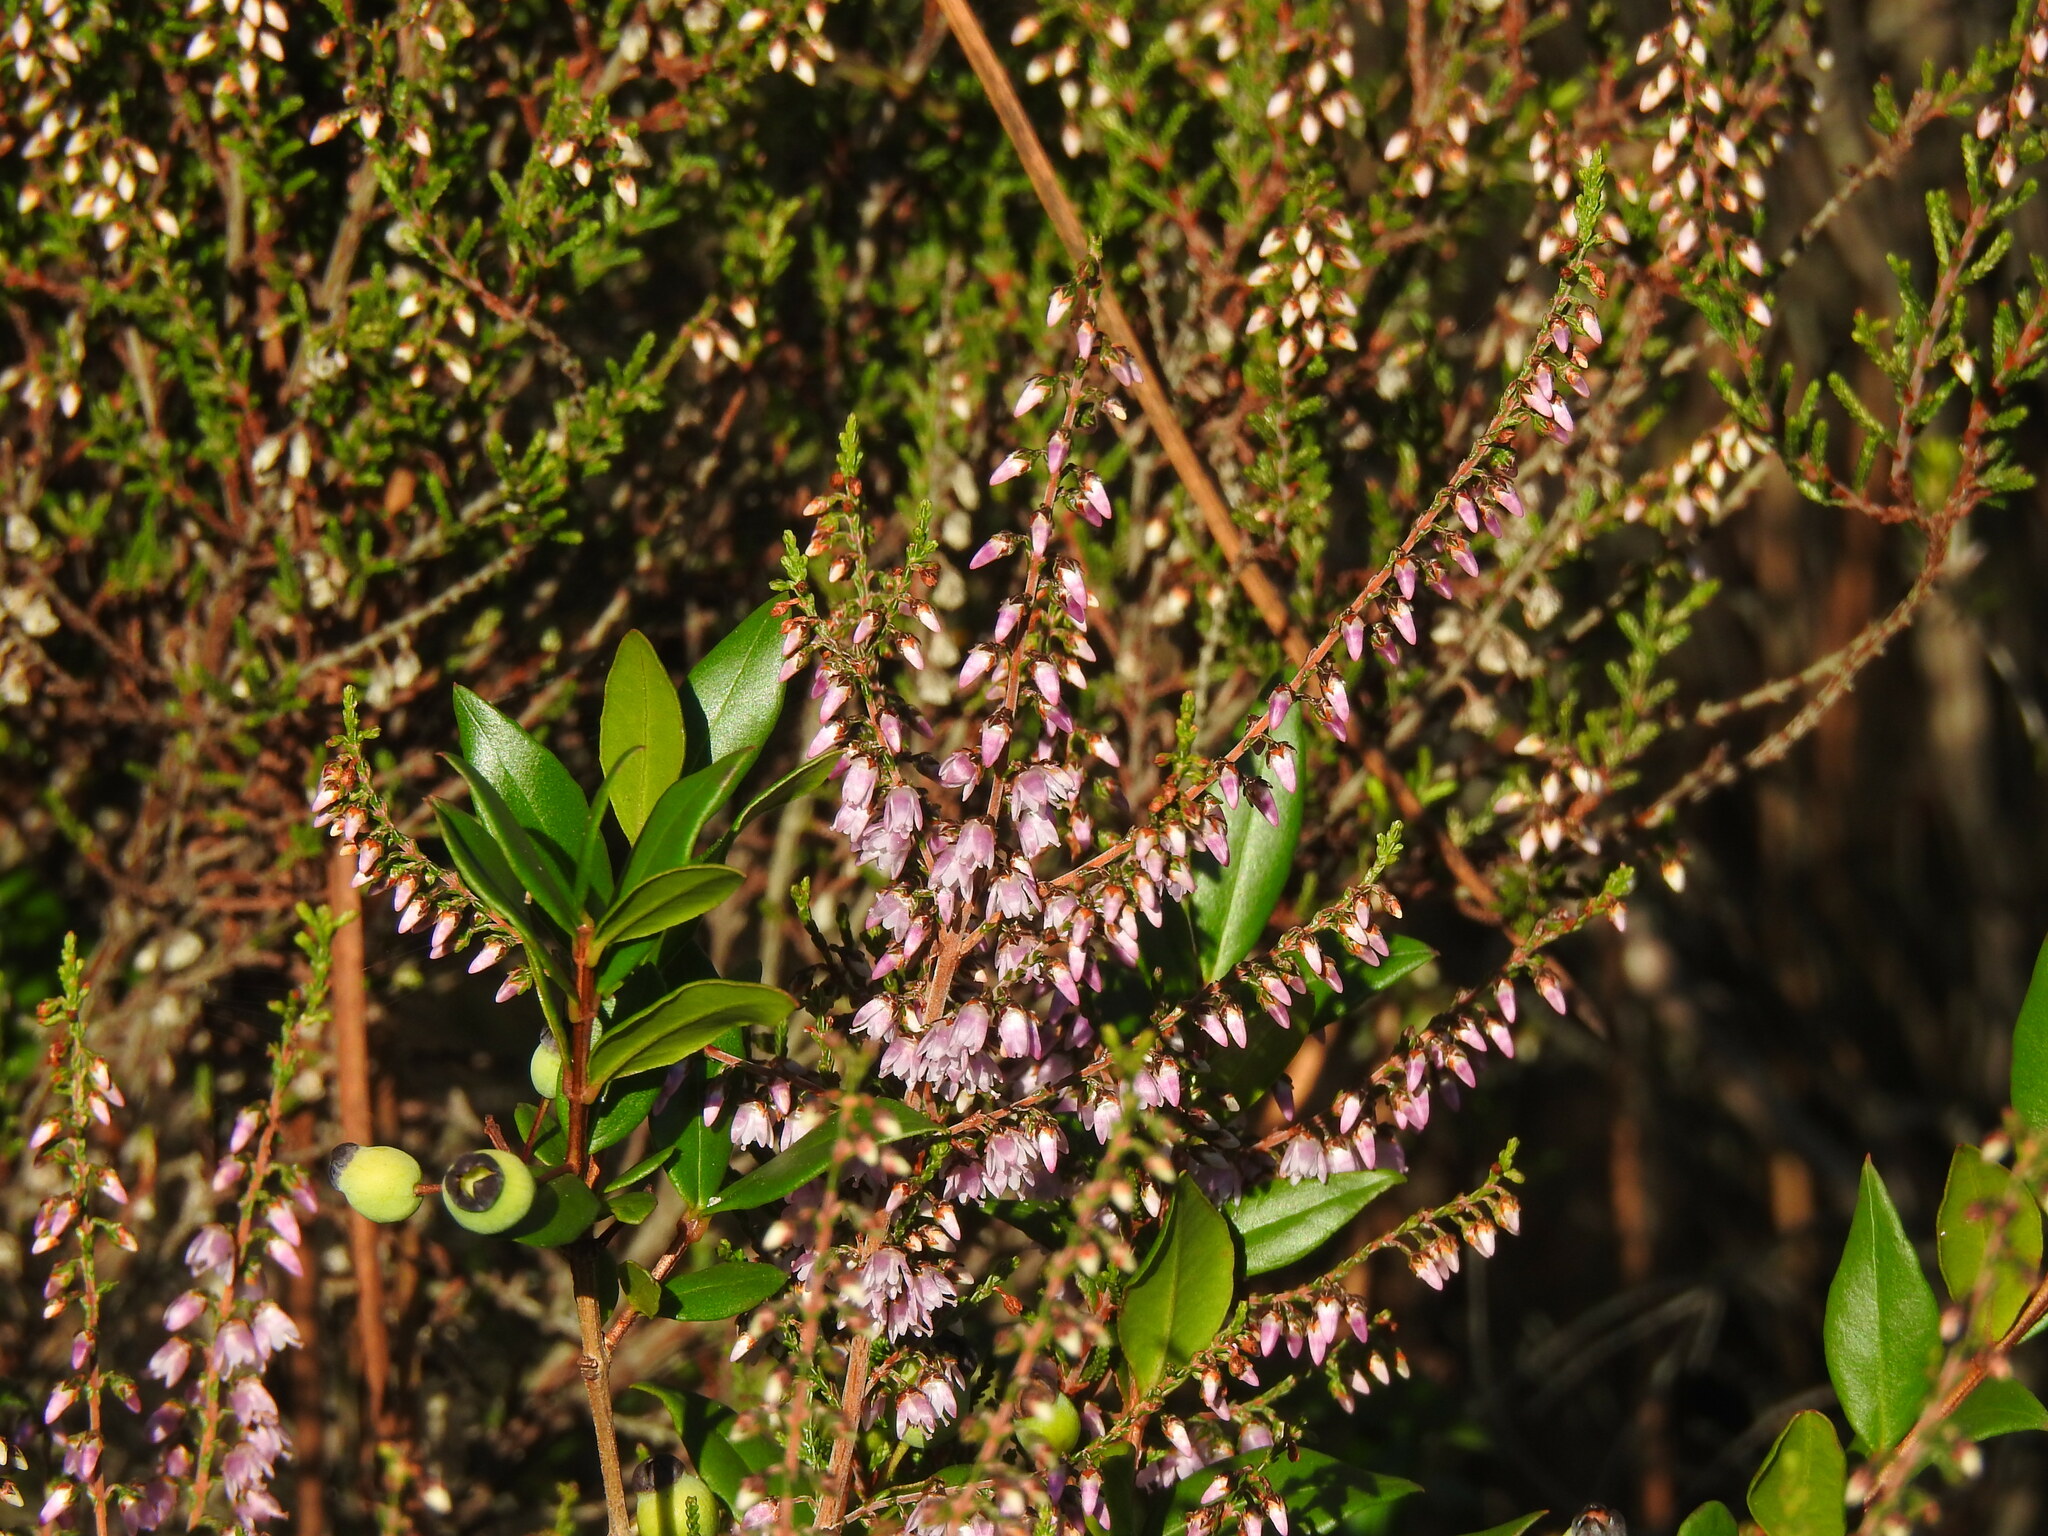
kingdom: Plantae
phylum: Tracheophyta
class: Magnoliopsida
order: Ericales
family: Ericaceae
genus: Calluna
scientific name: Calluna vulgaris
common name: Heather
